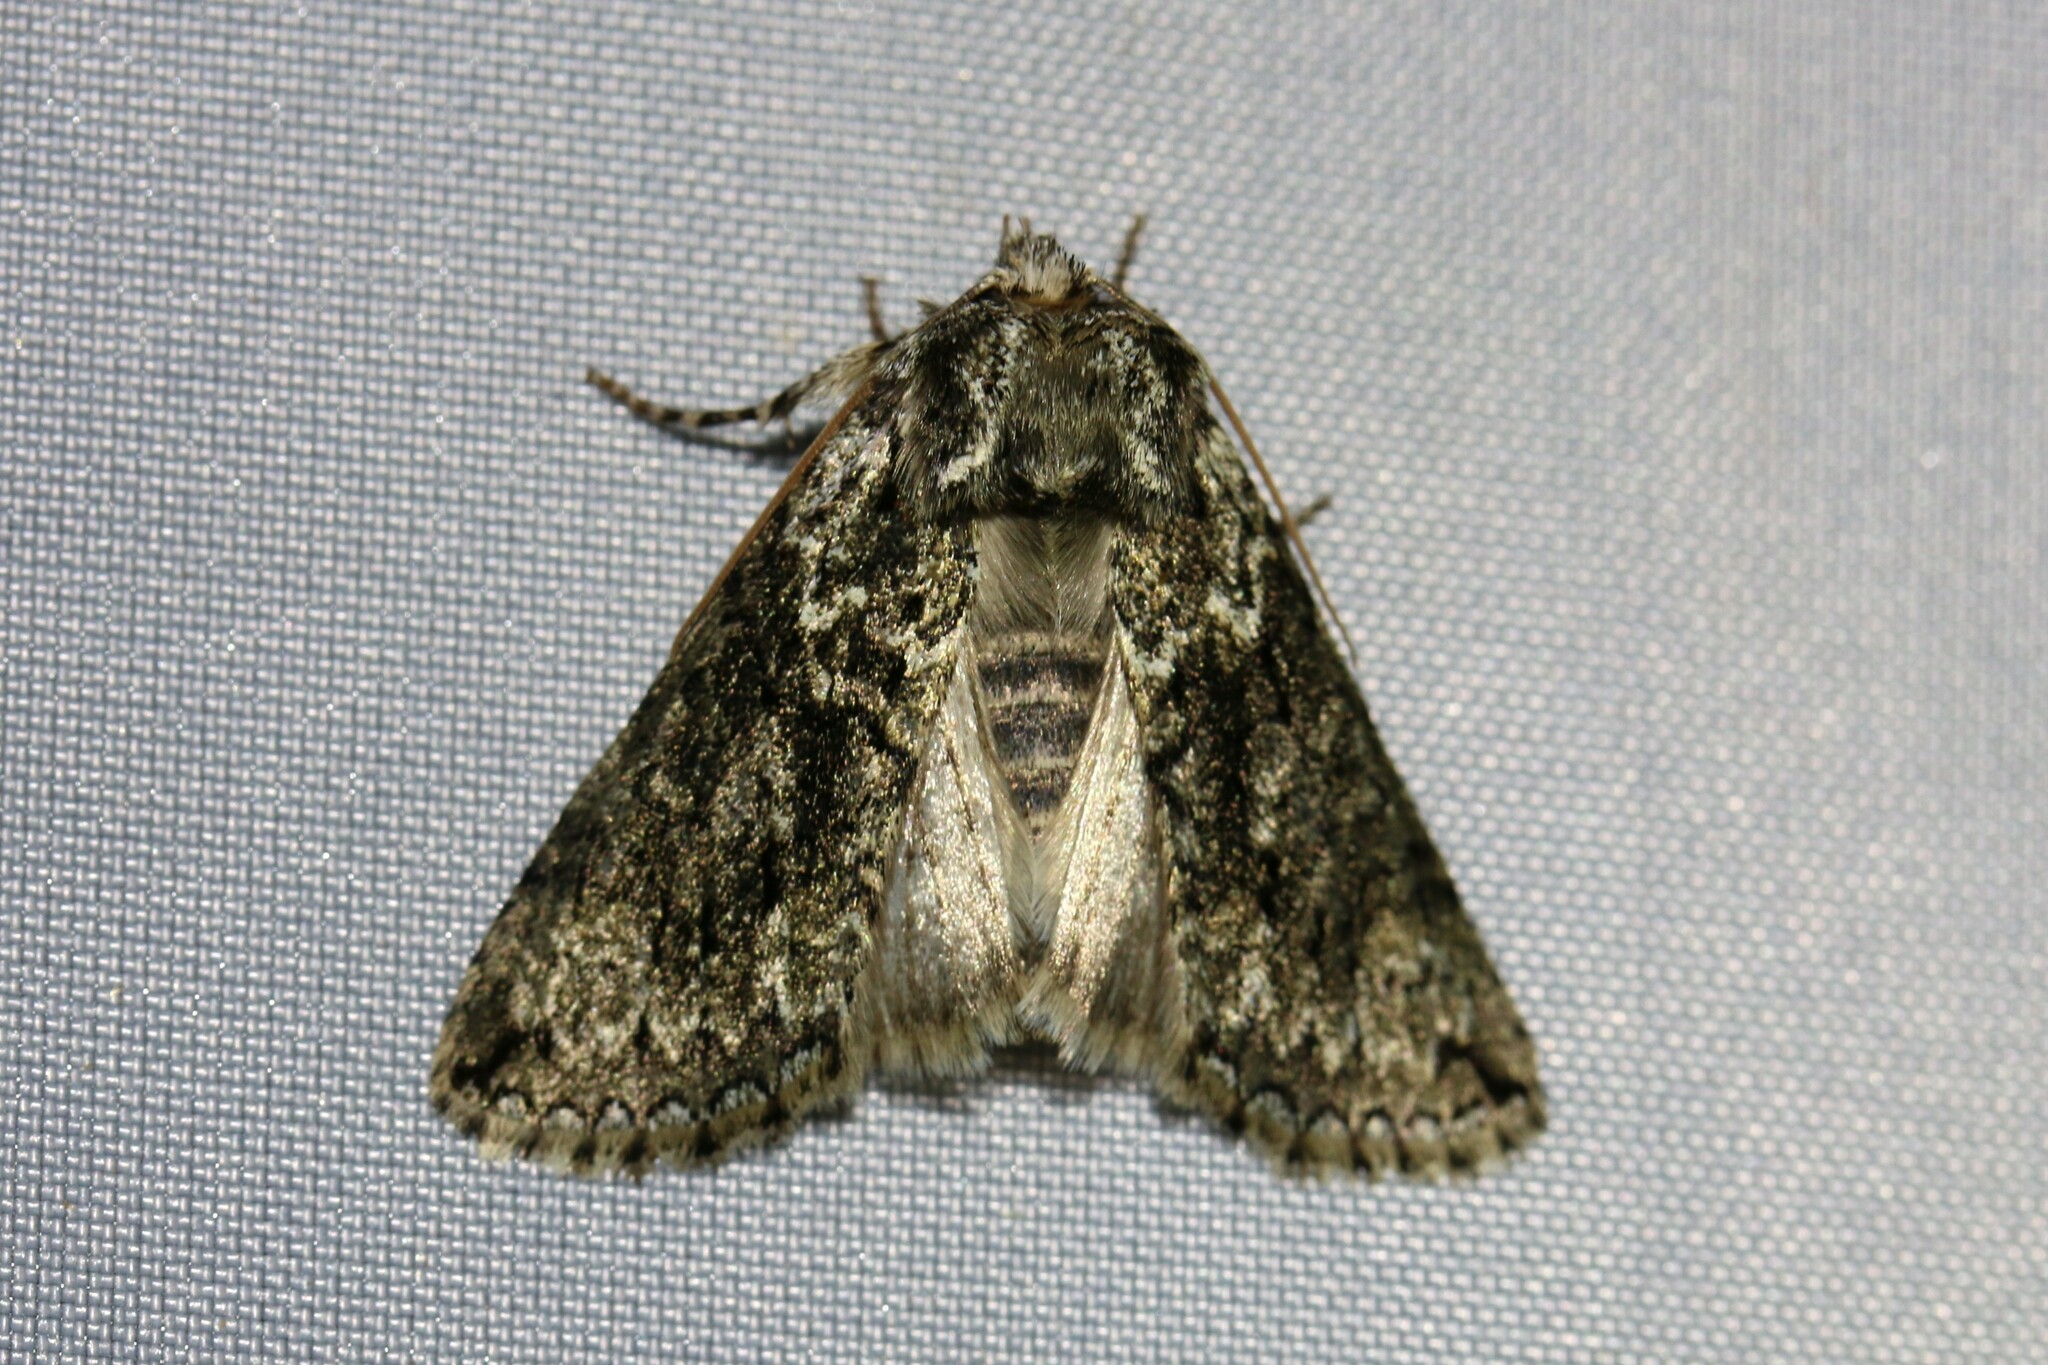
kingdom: Animalia
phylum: Arthropoda
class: Insecta
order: Lepidoptera
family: Drepanidae
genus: Polyploca
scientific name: Polyploca ridens
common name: Frosted green
